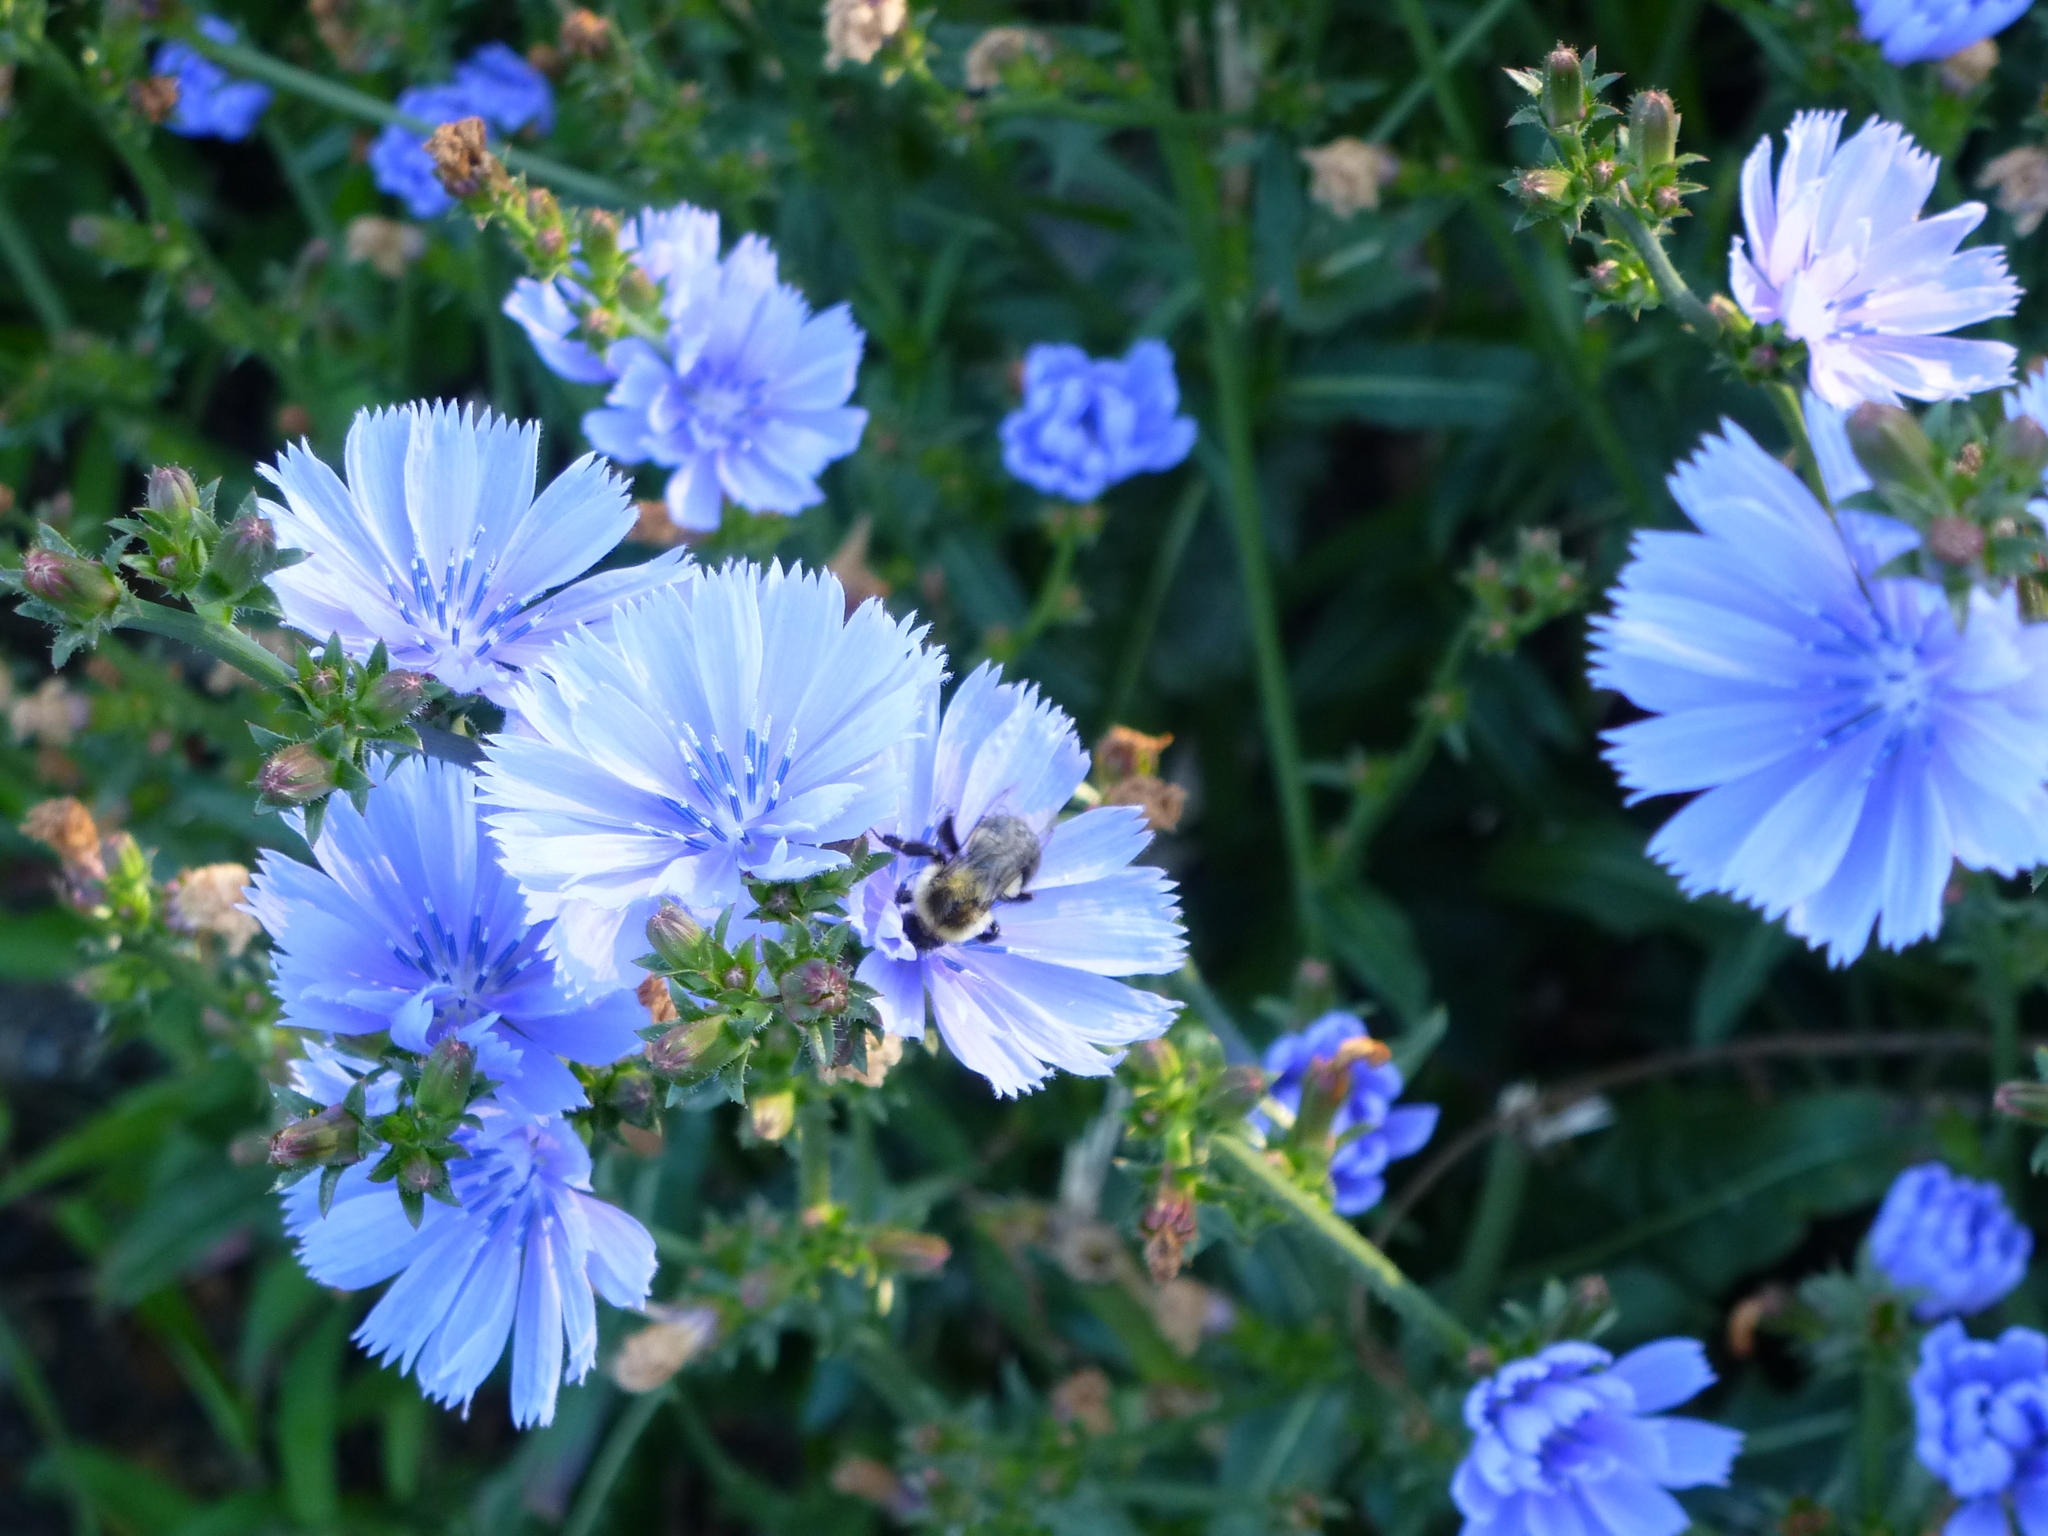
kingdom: Animalia
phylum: Arthropoda
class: Insecta
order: Hymenoptera
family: Apidae
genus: Bombus
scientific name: Bombus impatiens
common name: Common eastern bumble bee
